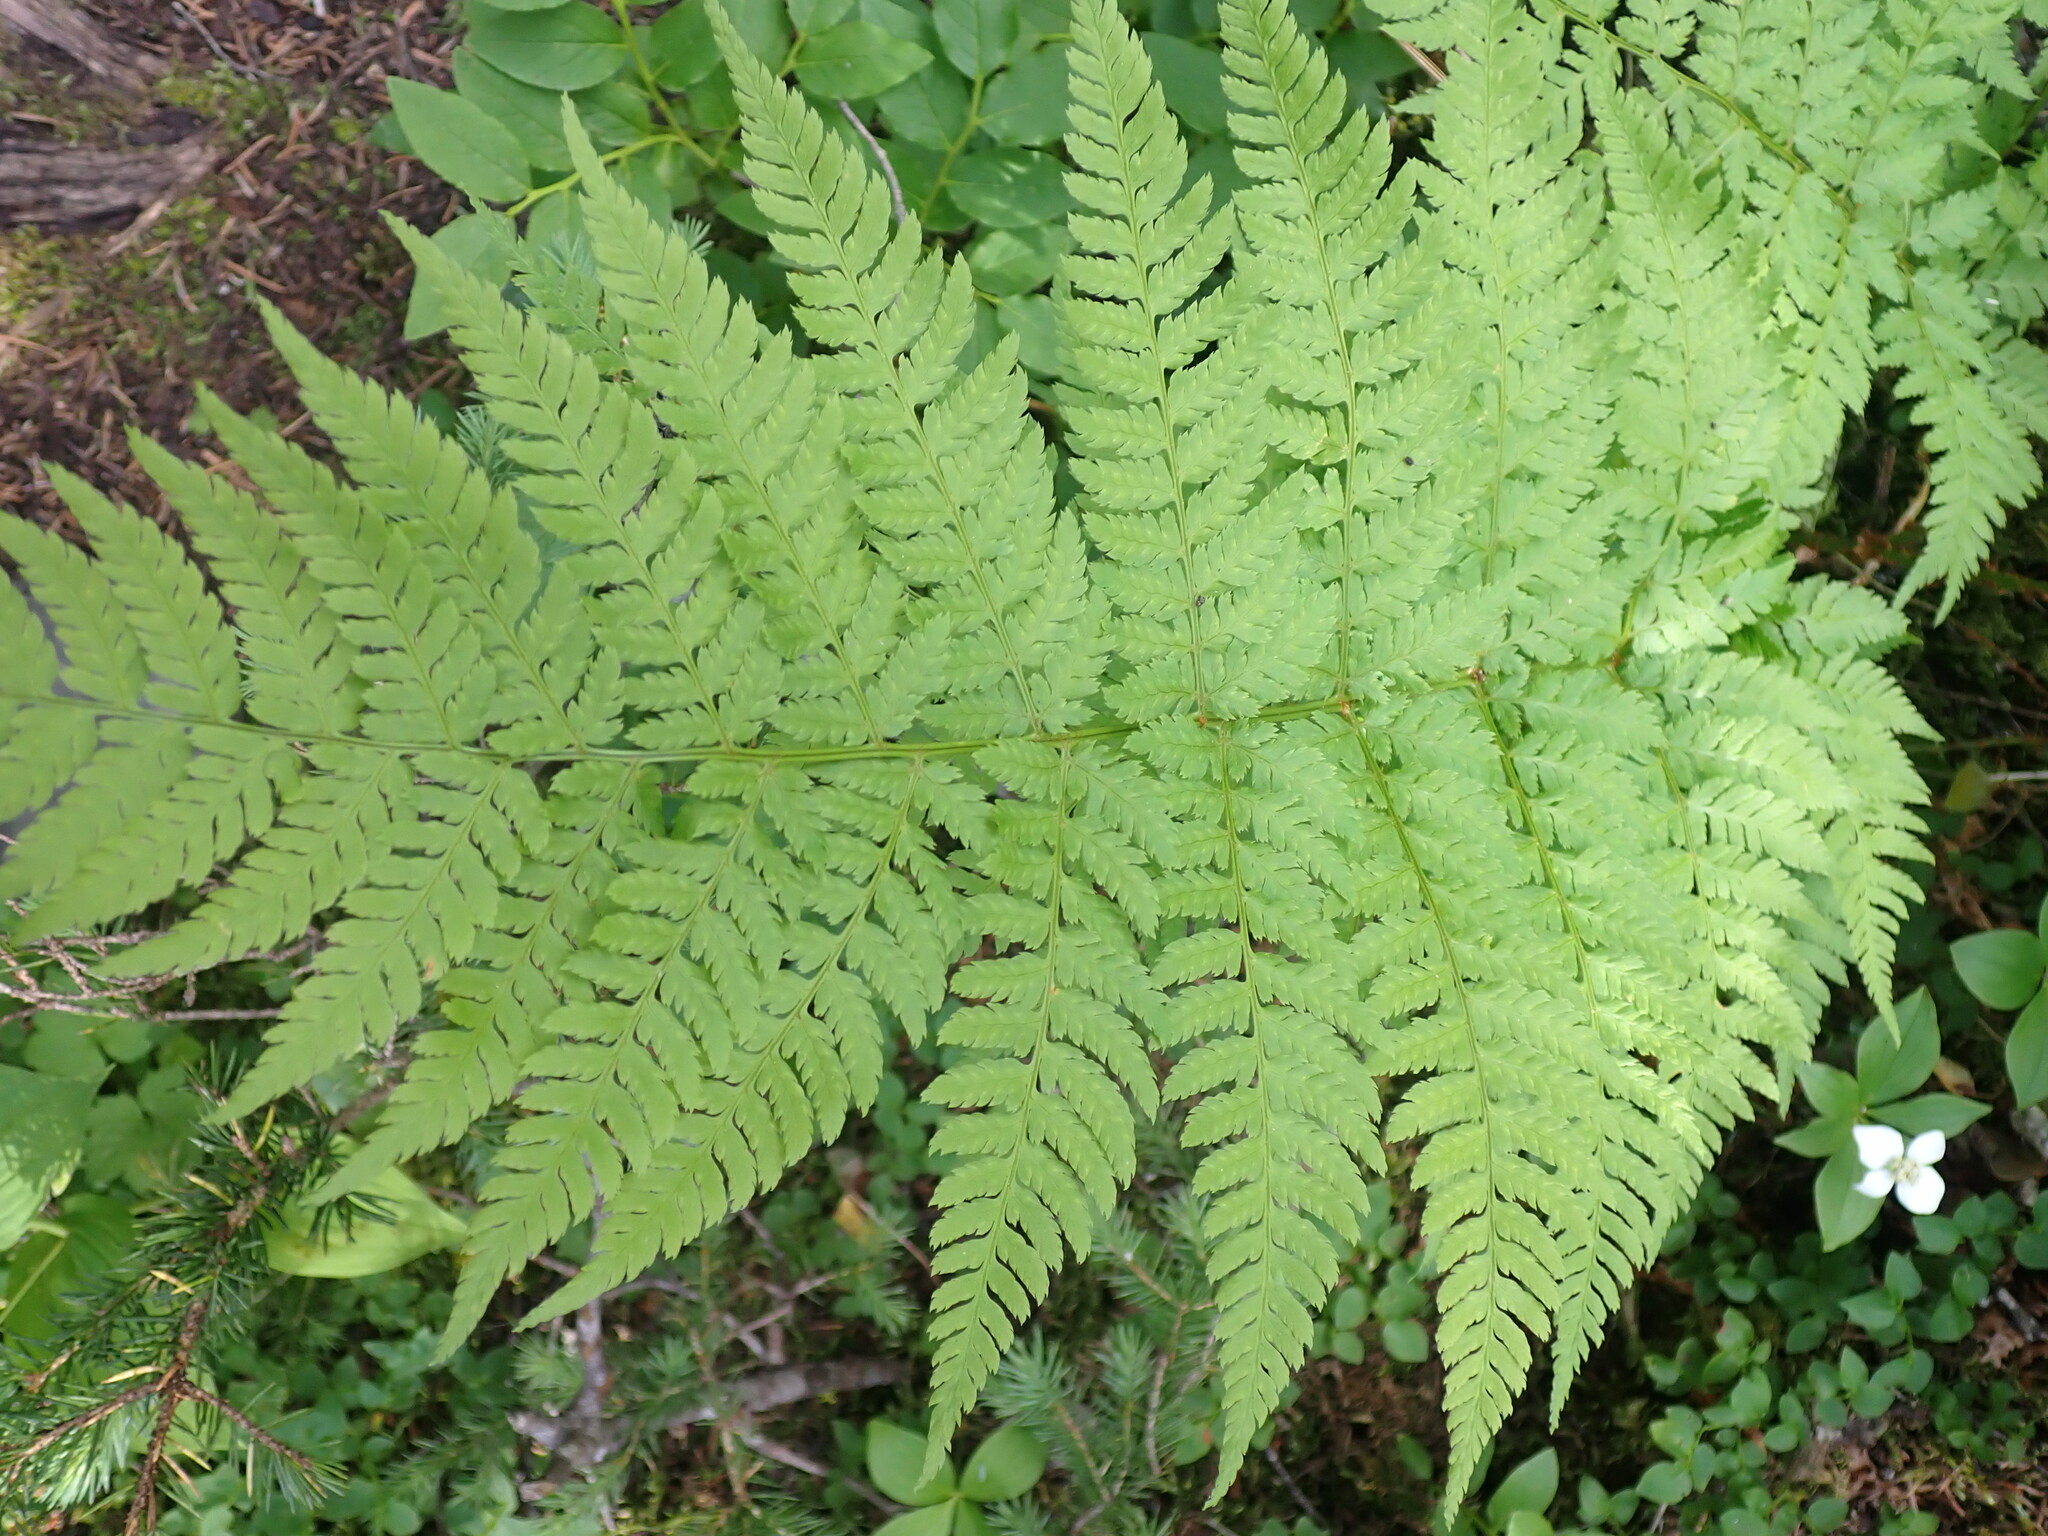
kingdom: Plantae
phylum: Tracheophyta
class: Polypodiopsida
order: Polypodiales
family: Dryopteridaceae
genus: Dryopteris
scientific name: Dryopteris expansa
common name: Northern buckler fern
